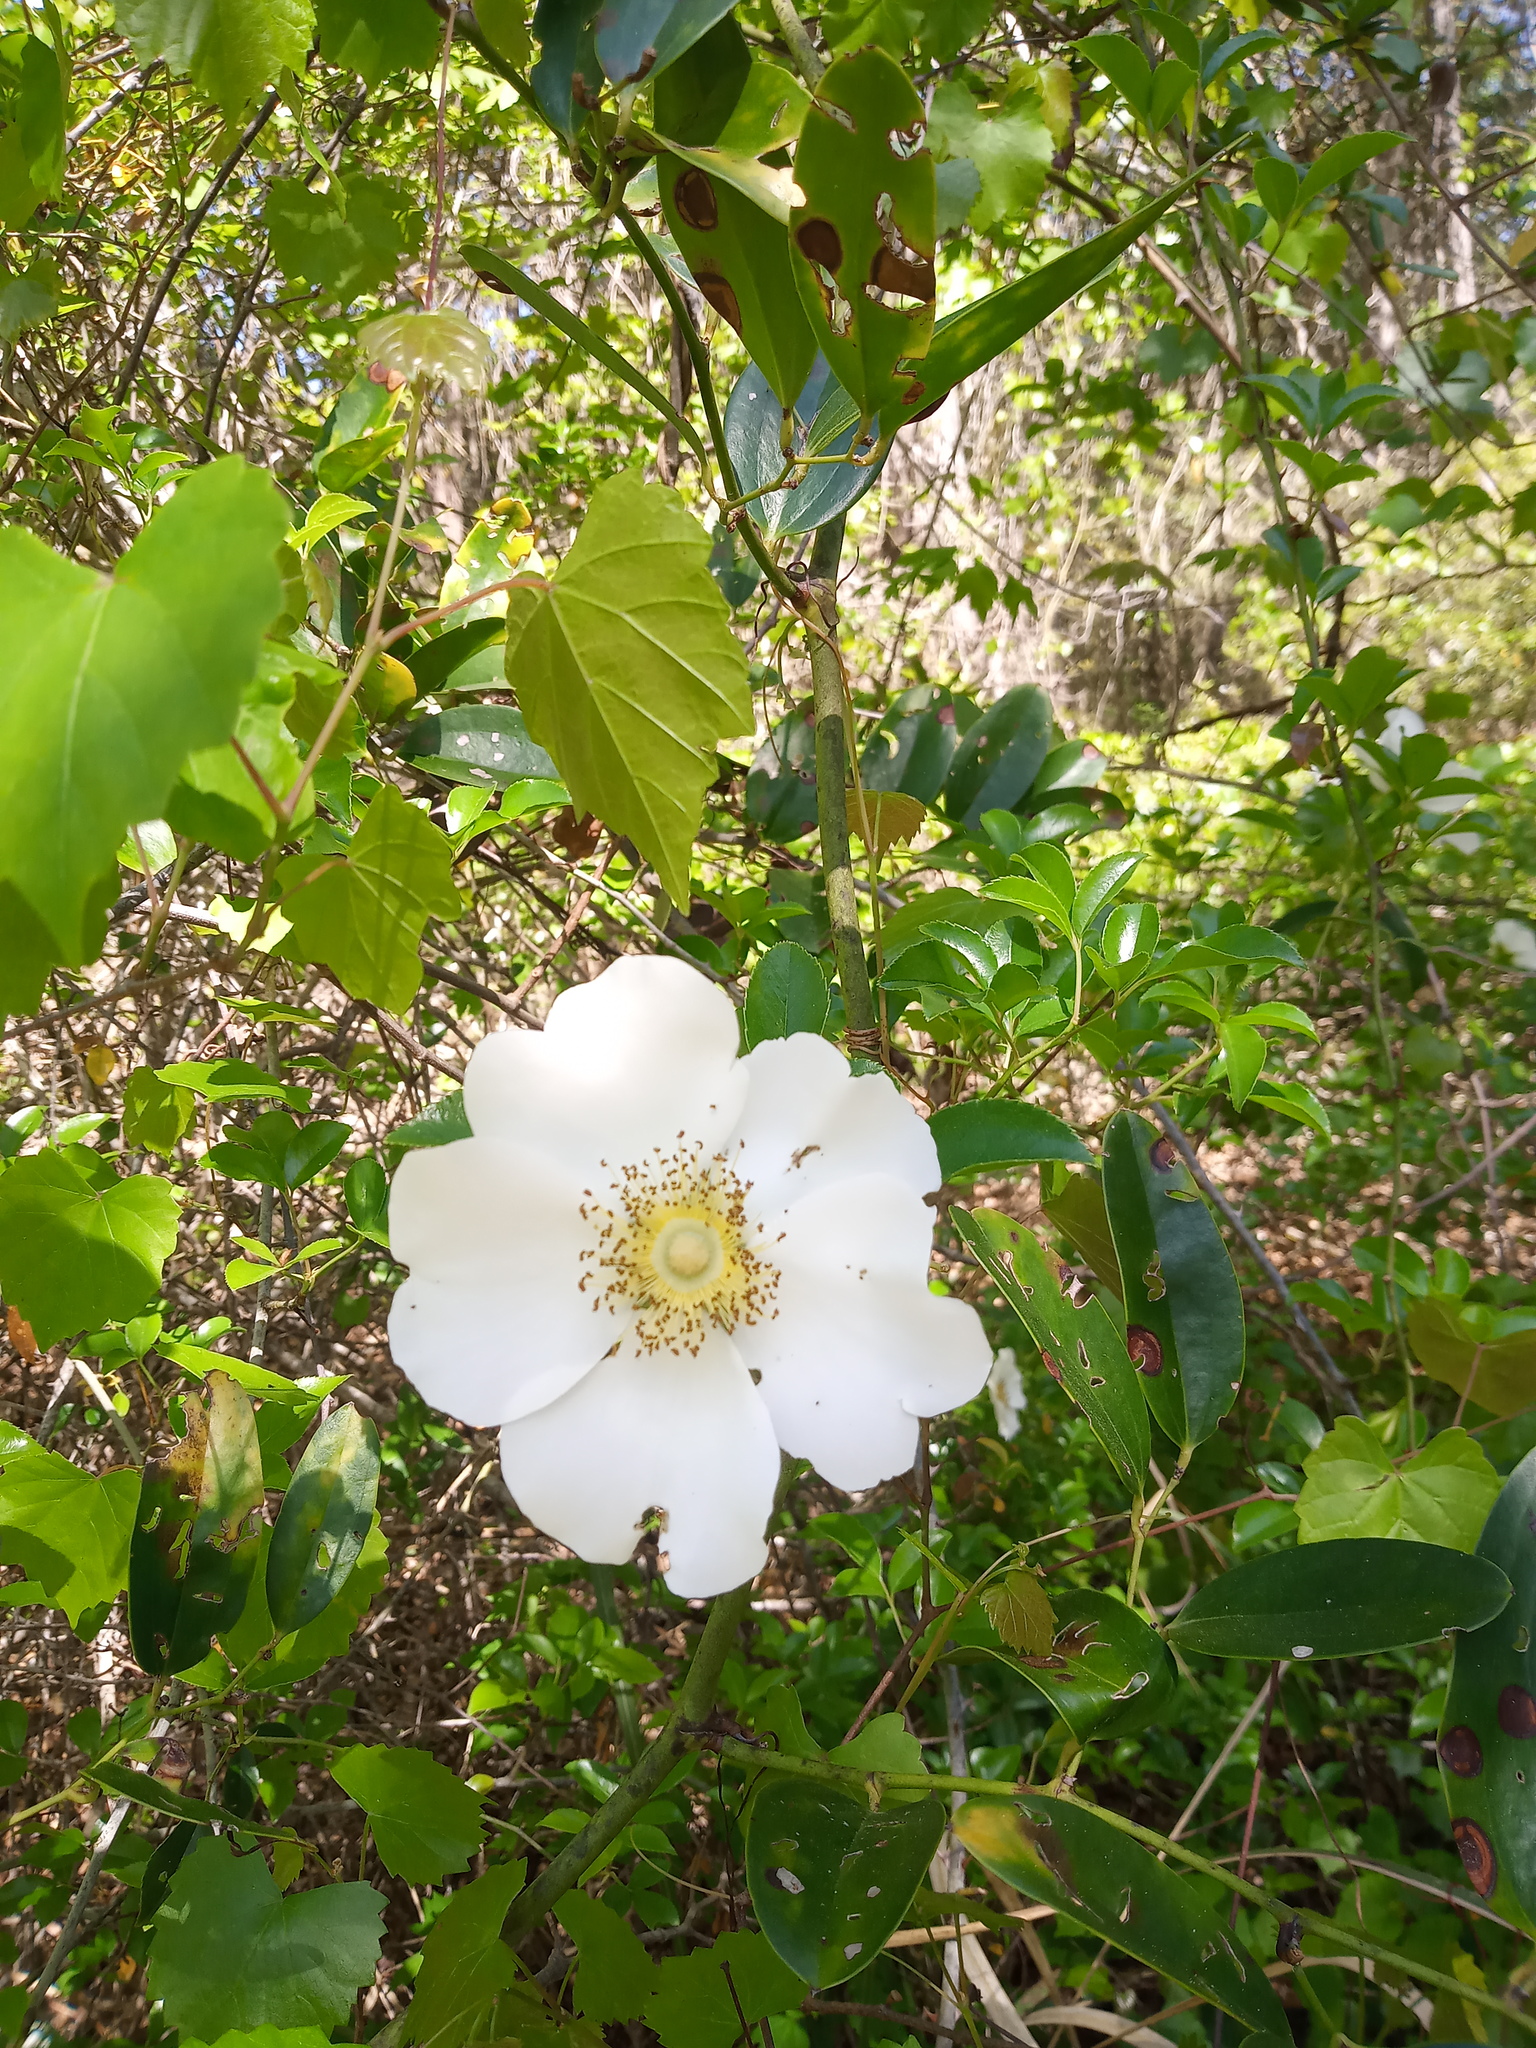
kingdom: Plantae
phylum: Tracheophyta
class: Magnoliopsida
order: Rosales
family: Rosaceae
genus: Rosa
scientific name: Rosa laevigata
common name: Cherokee rose
